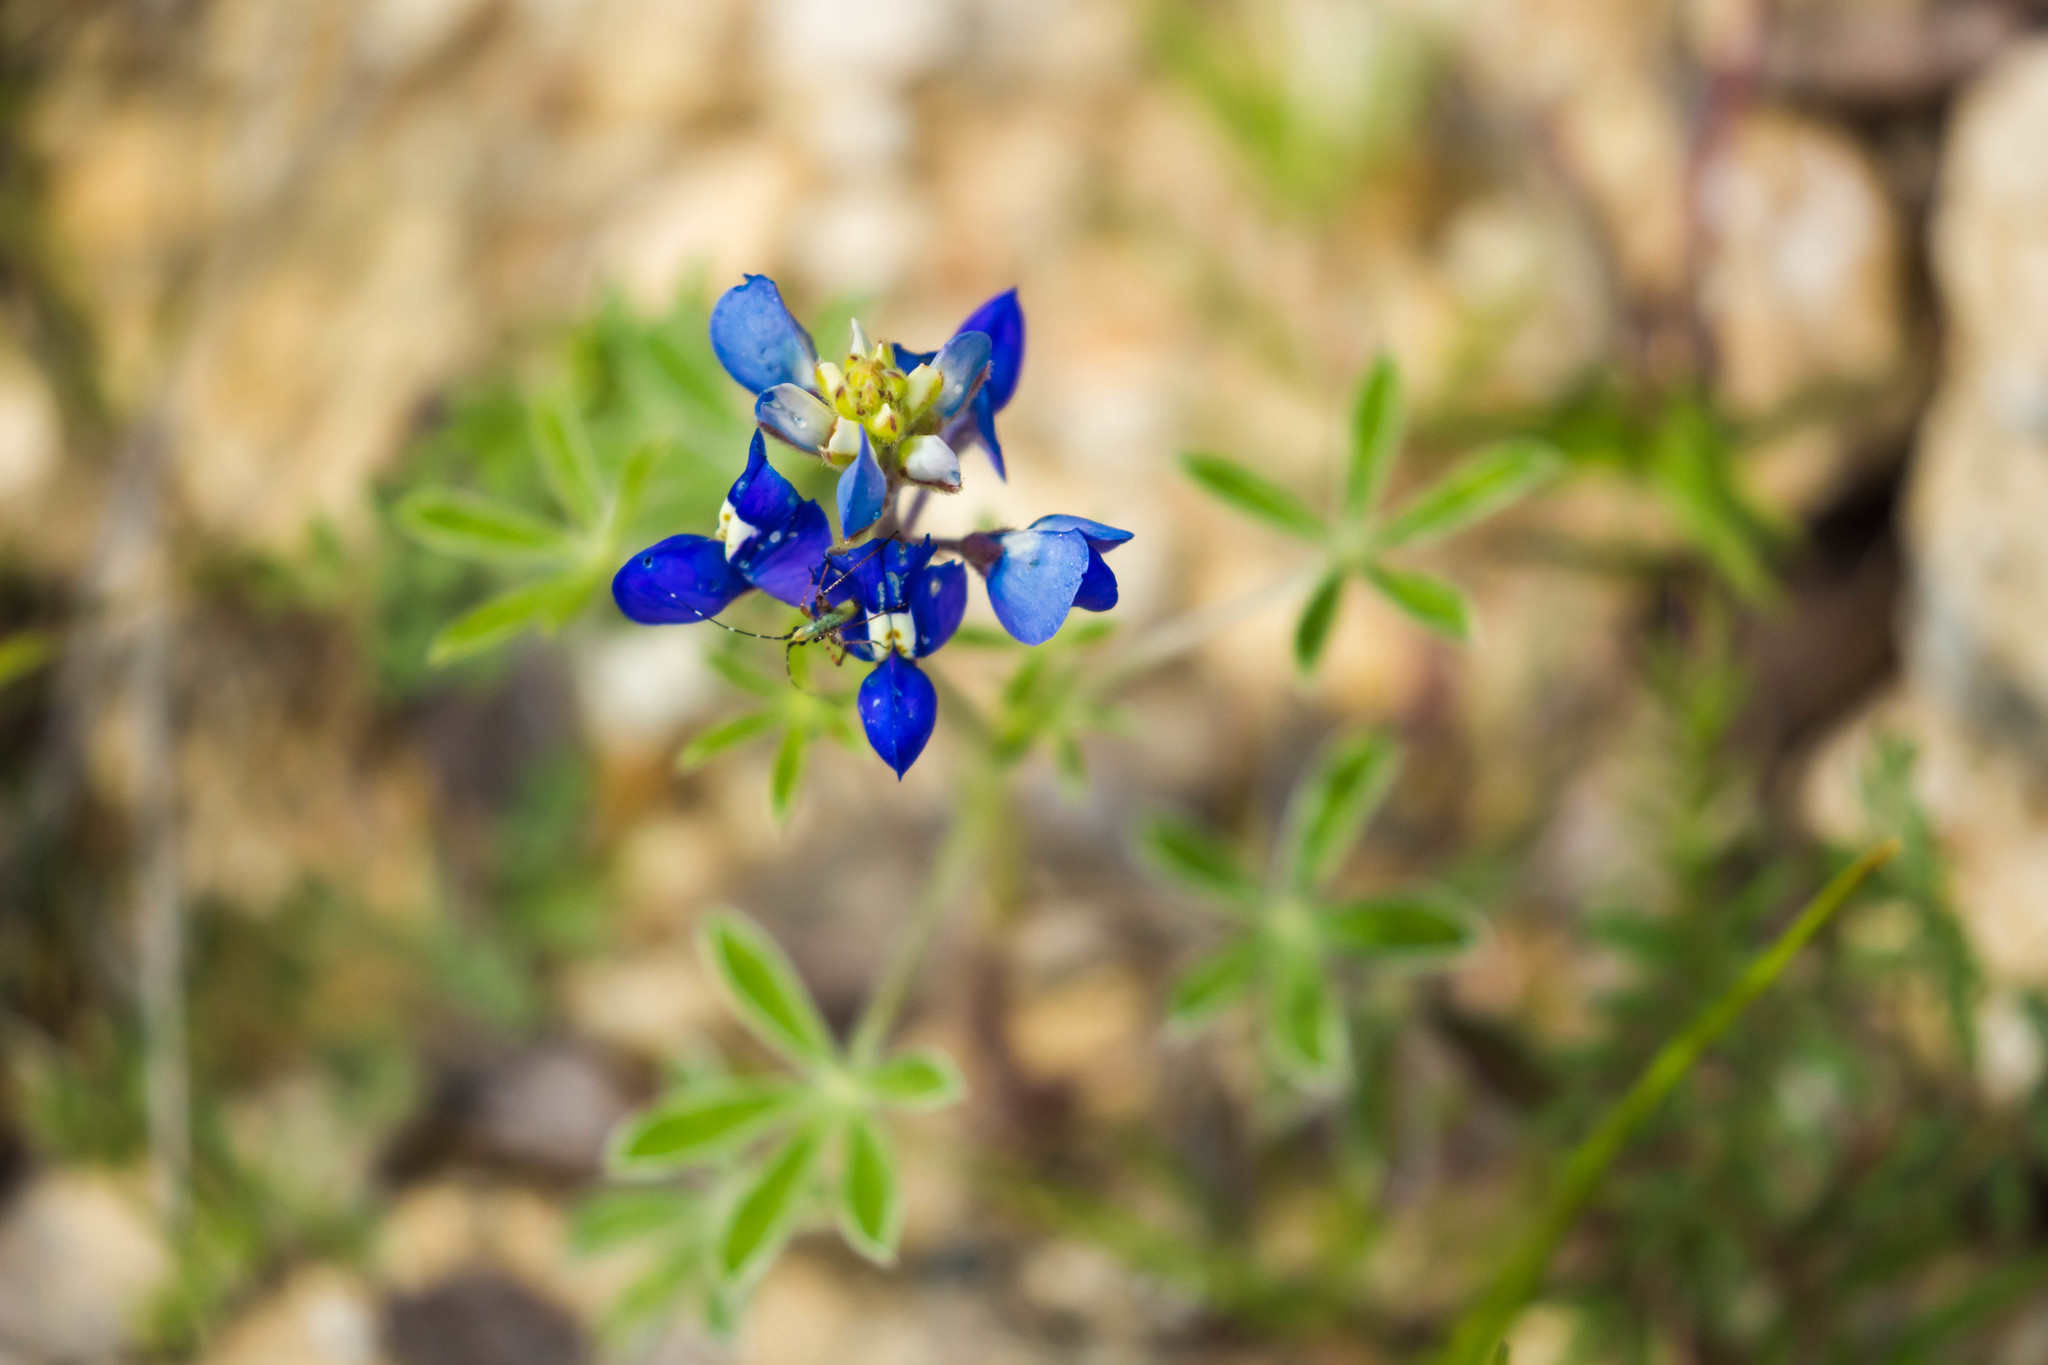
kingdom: Plantae
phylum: Tracheophyta
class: Magnoliopsida
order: Fabales
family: Fabaceae
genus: Lupinus
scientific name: Lupinus texensis
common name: Texas bluebonnet
